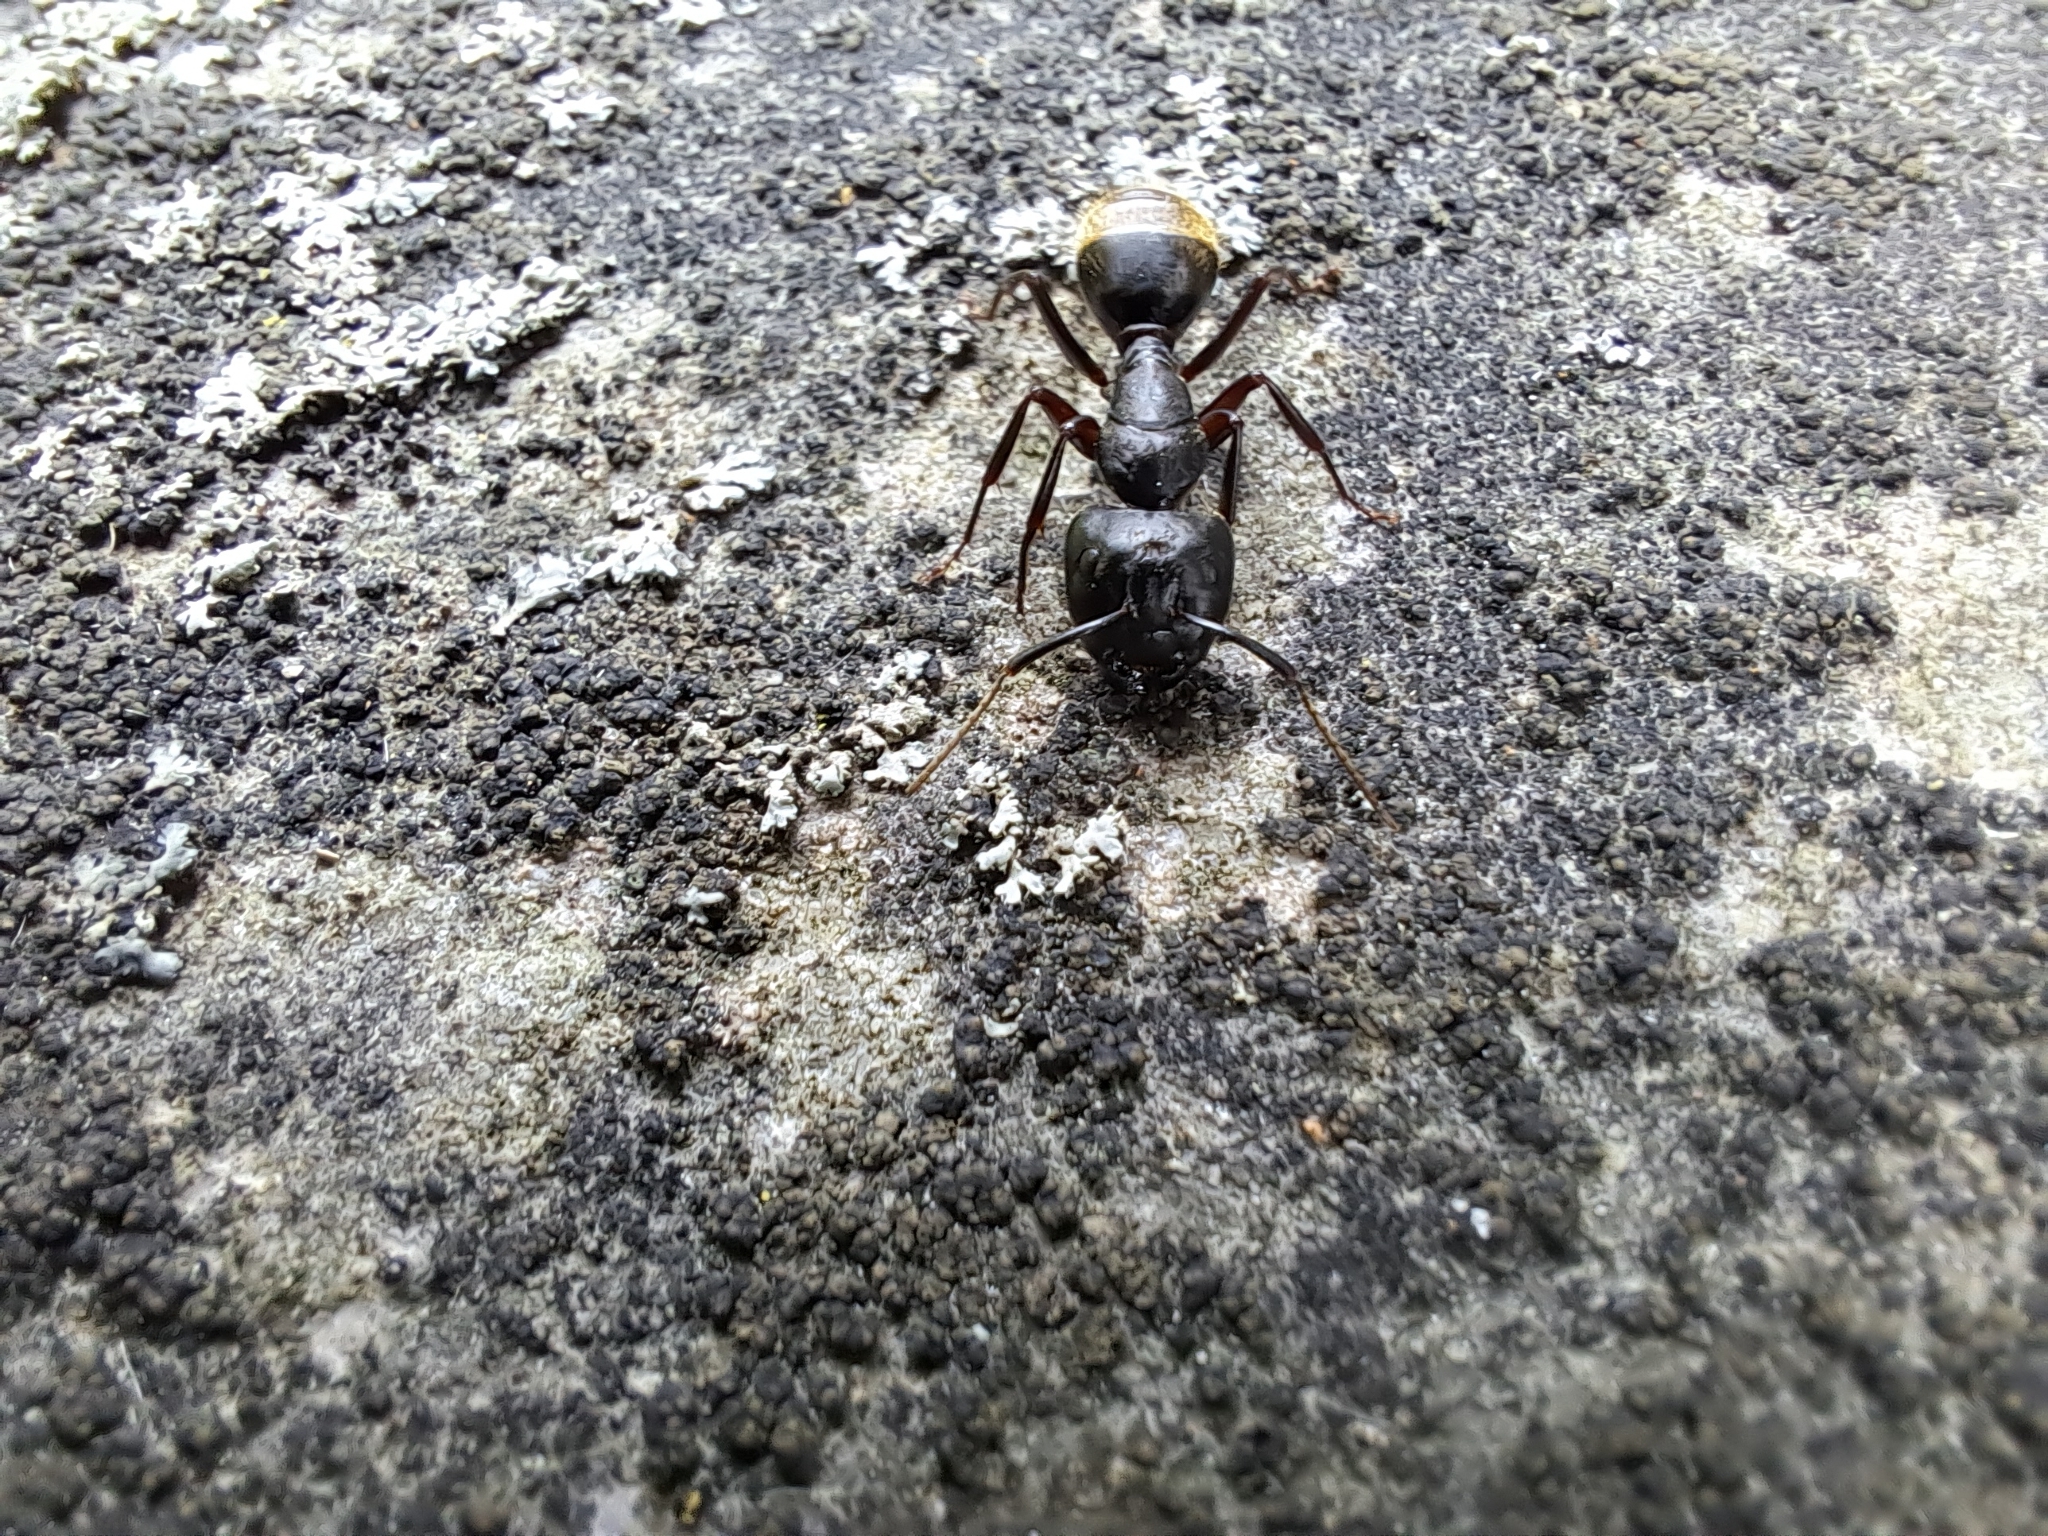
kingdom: Animalia
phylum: Arthropoda
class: Insecta
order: Hymenoptera
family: Formicidae
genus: Camponotus
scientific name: Camponotus pennsylvanicus
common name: Black carpenter ant
